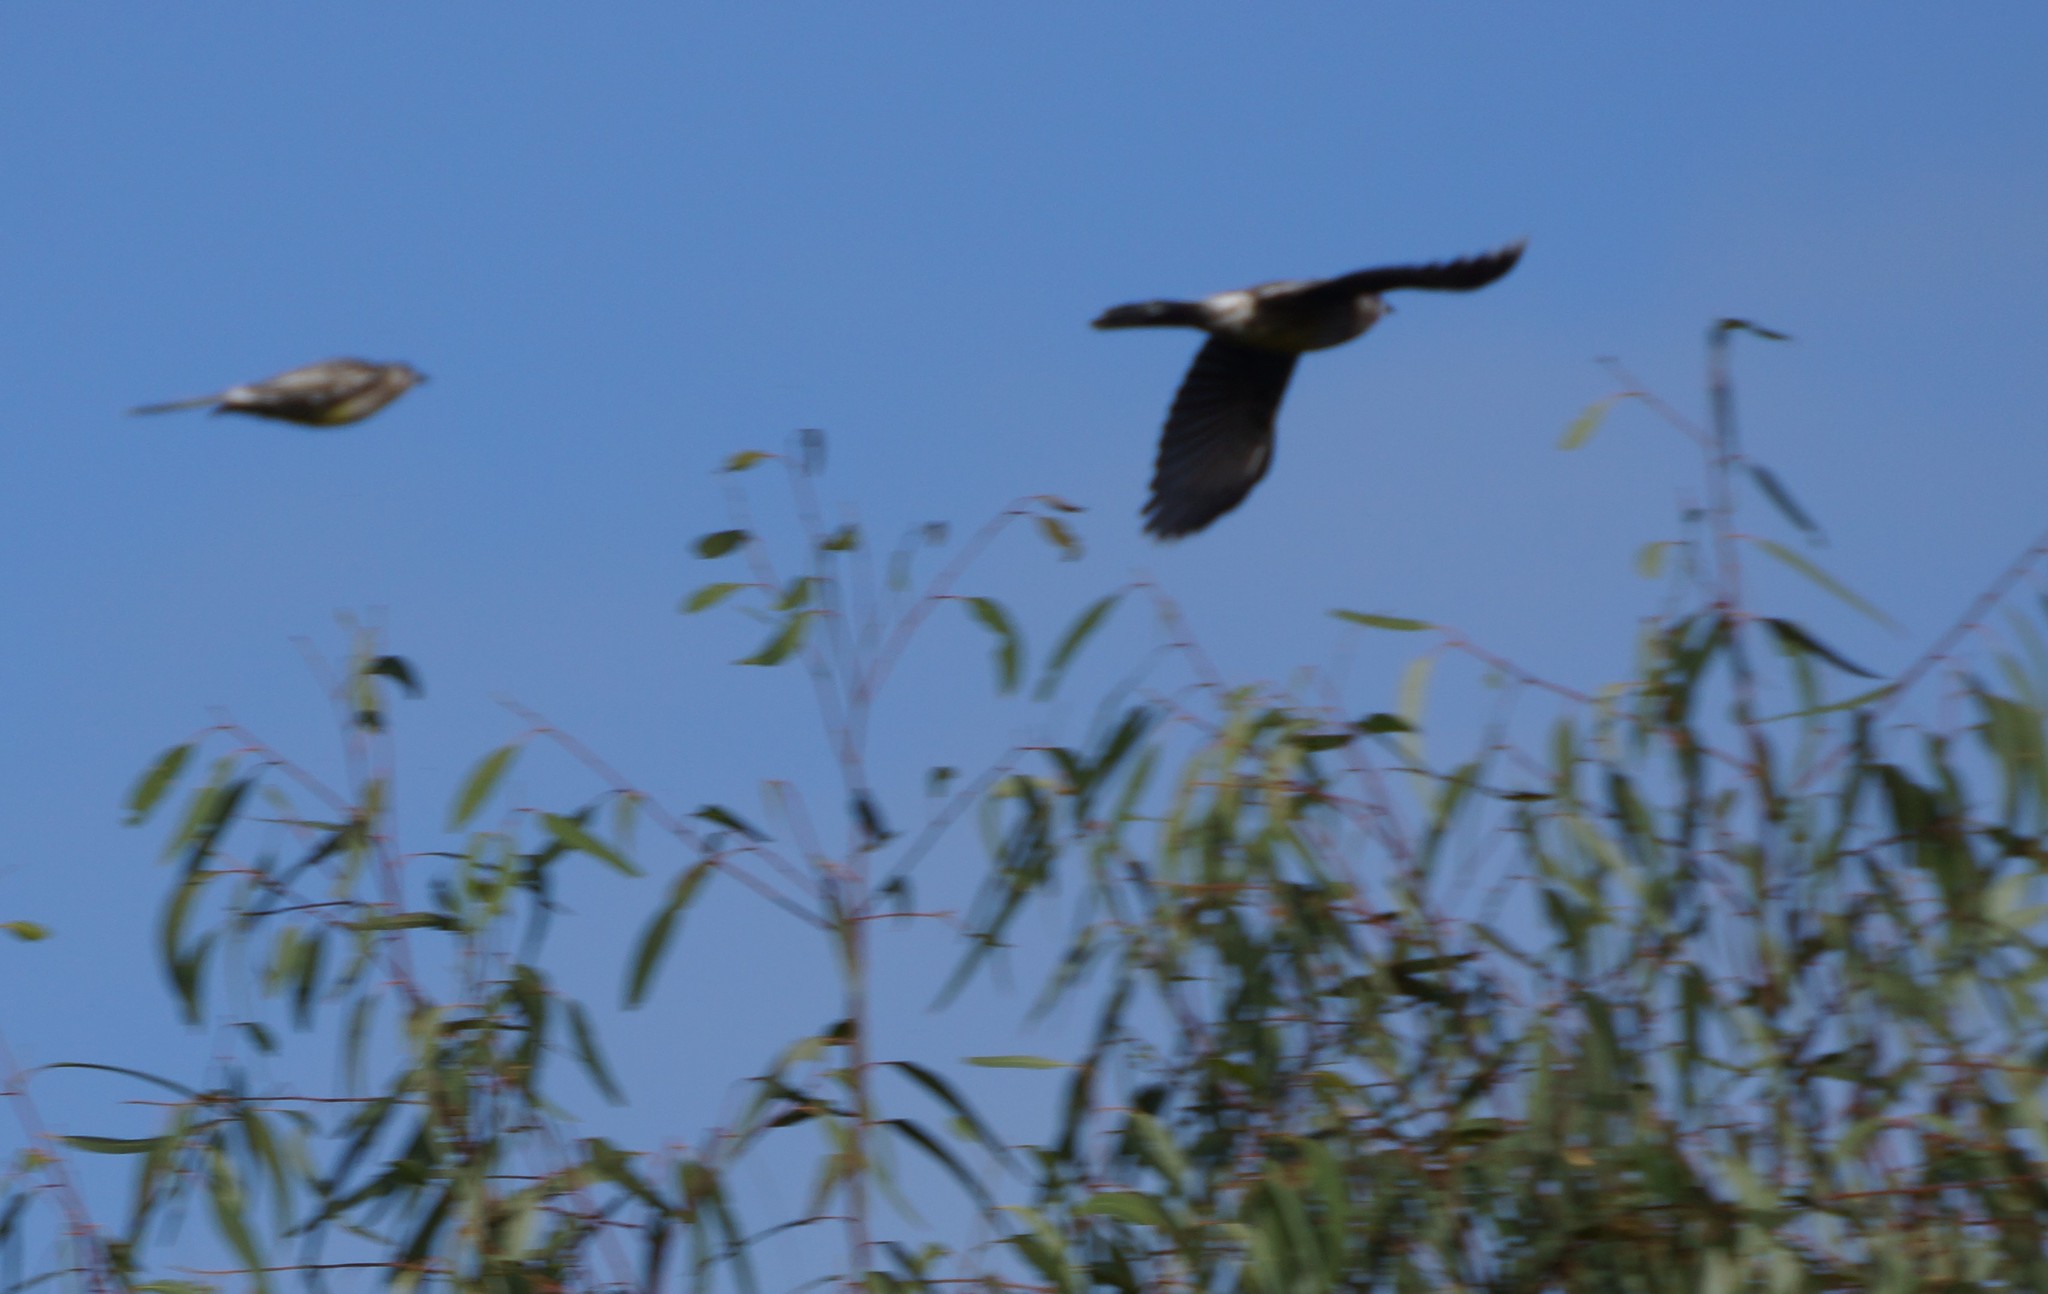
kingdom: Animalia
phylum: Chordata
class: Aves
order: Accipitriformes
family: Accipitridae
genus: Circus
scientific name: Circus approximans
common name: Swamp harrier
